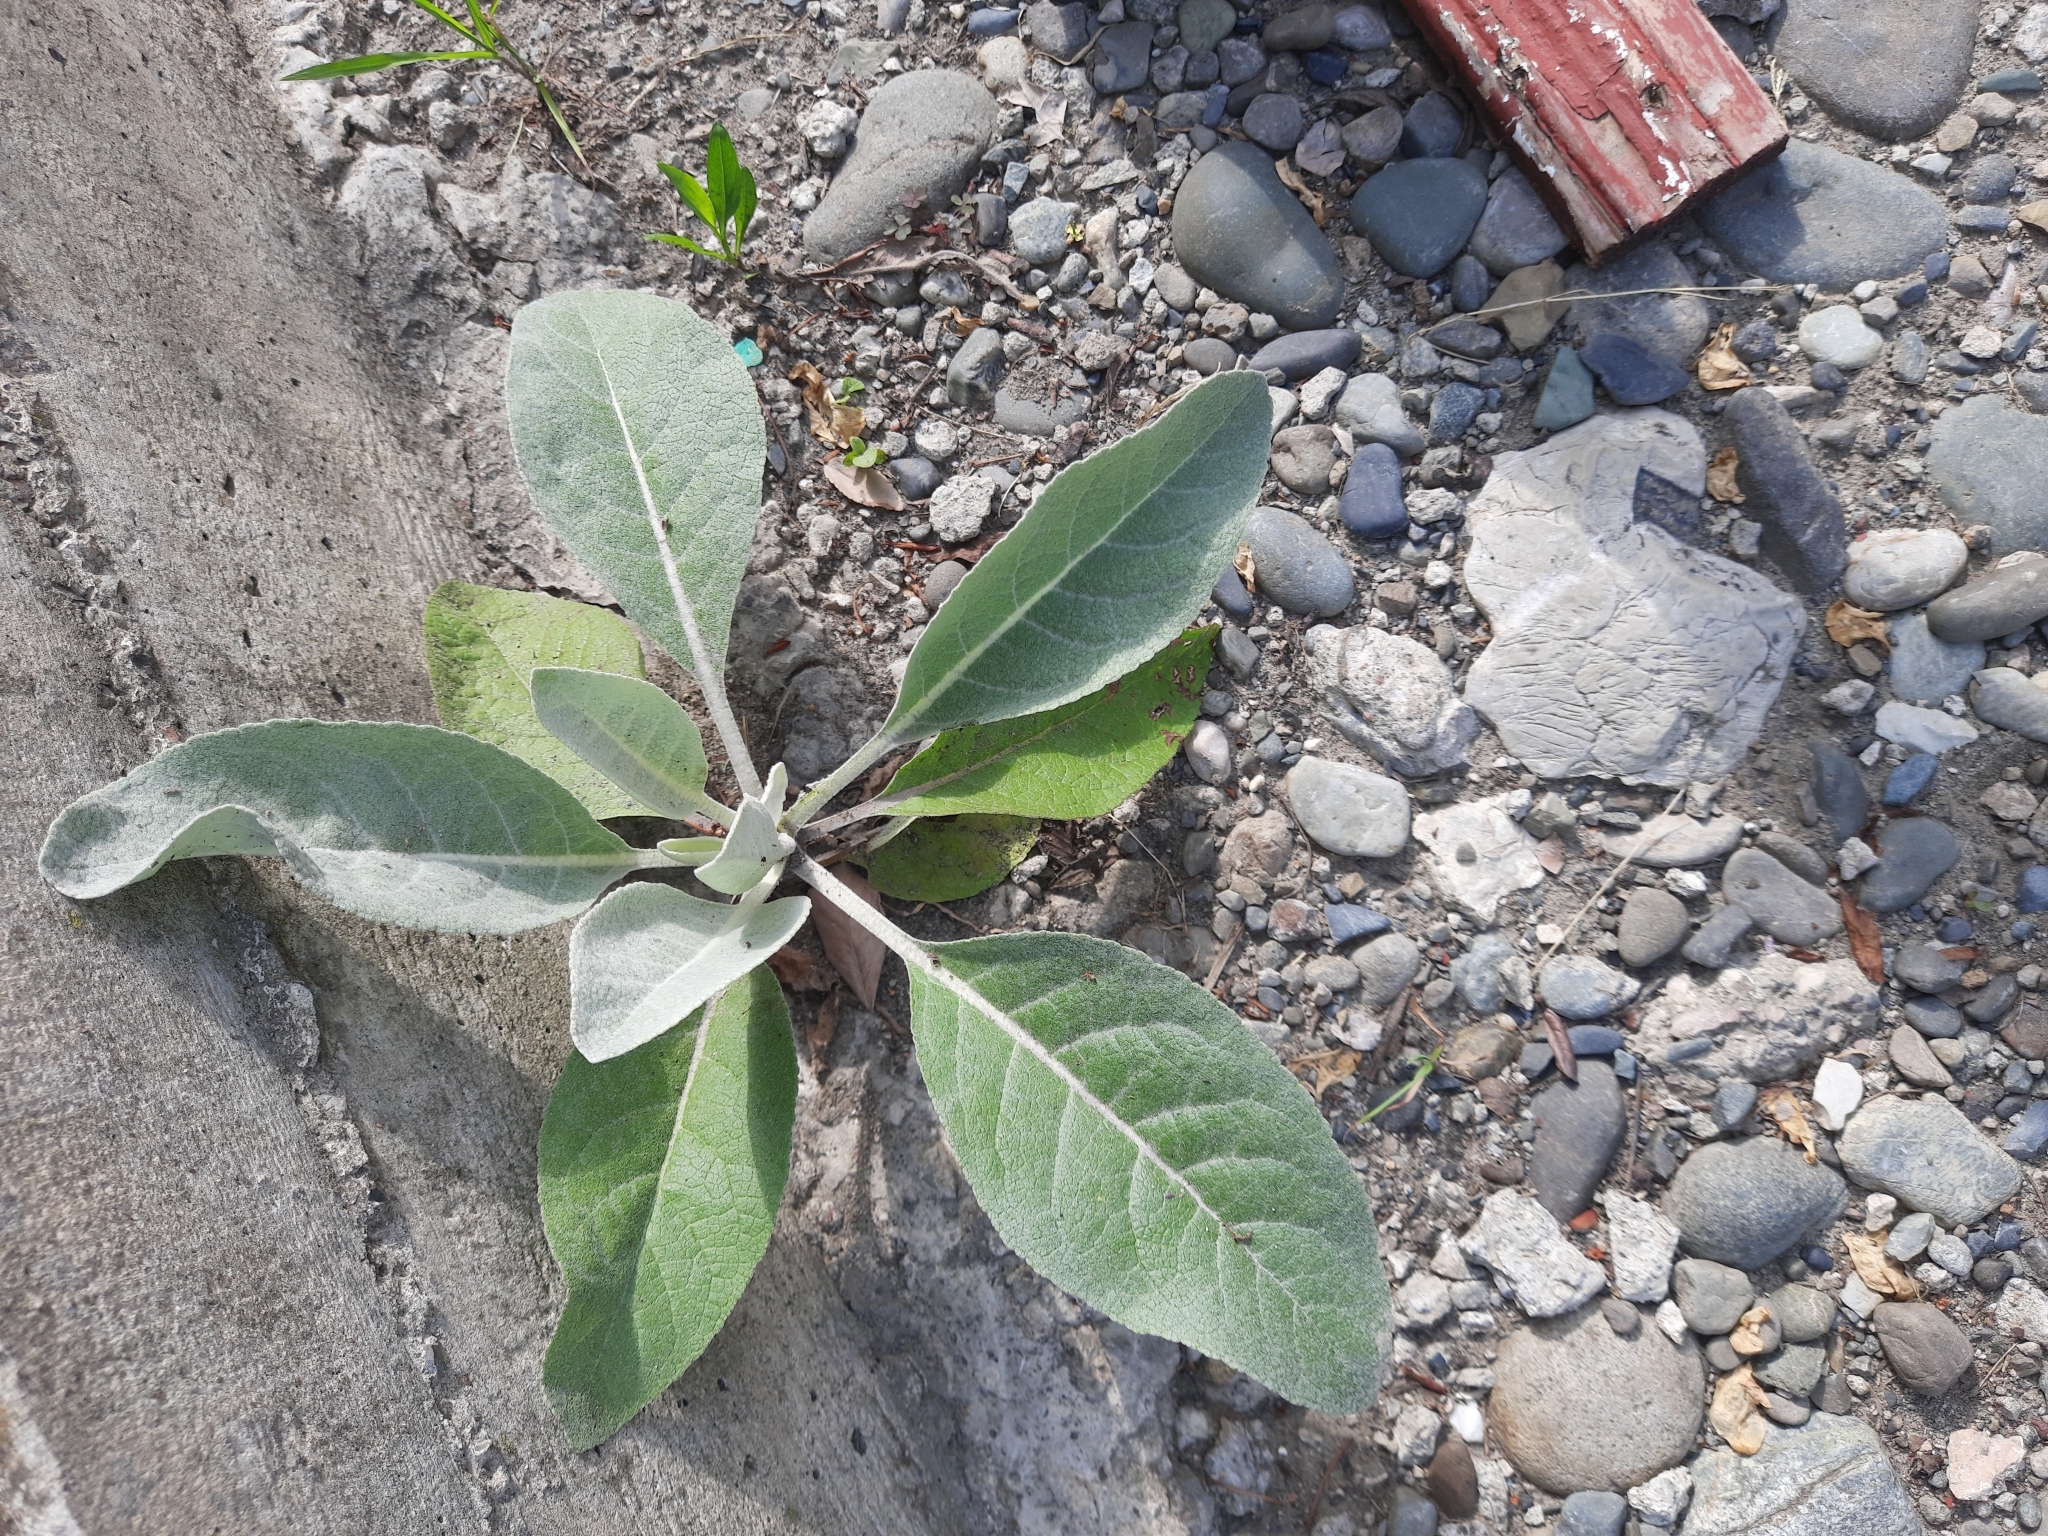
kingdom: Plantae
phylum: Tracheophyta
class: Magnoliopsida
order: Lamiales
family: Scrophulariaceae
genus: Verbascum
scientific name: Verbascum gnaphalodes
